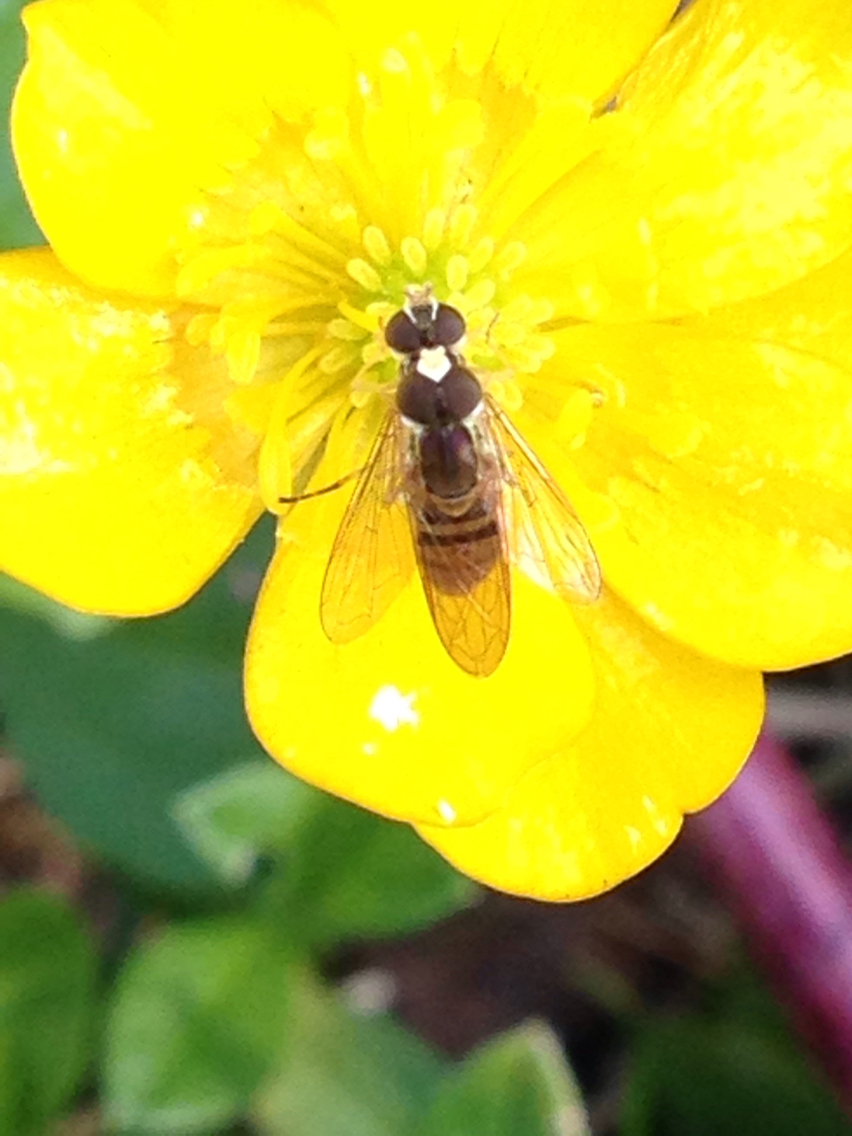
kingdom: Animalia
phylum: Arthropoda
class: Insecta
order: Diptera
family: Syrphidae
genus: Toxomerus
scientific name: Toxomerus marginatus
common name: Syrphid fly
